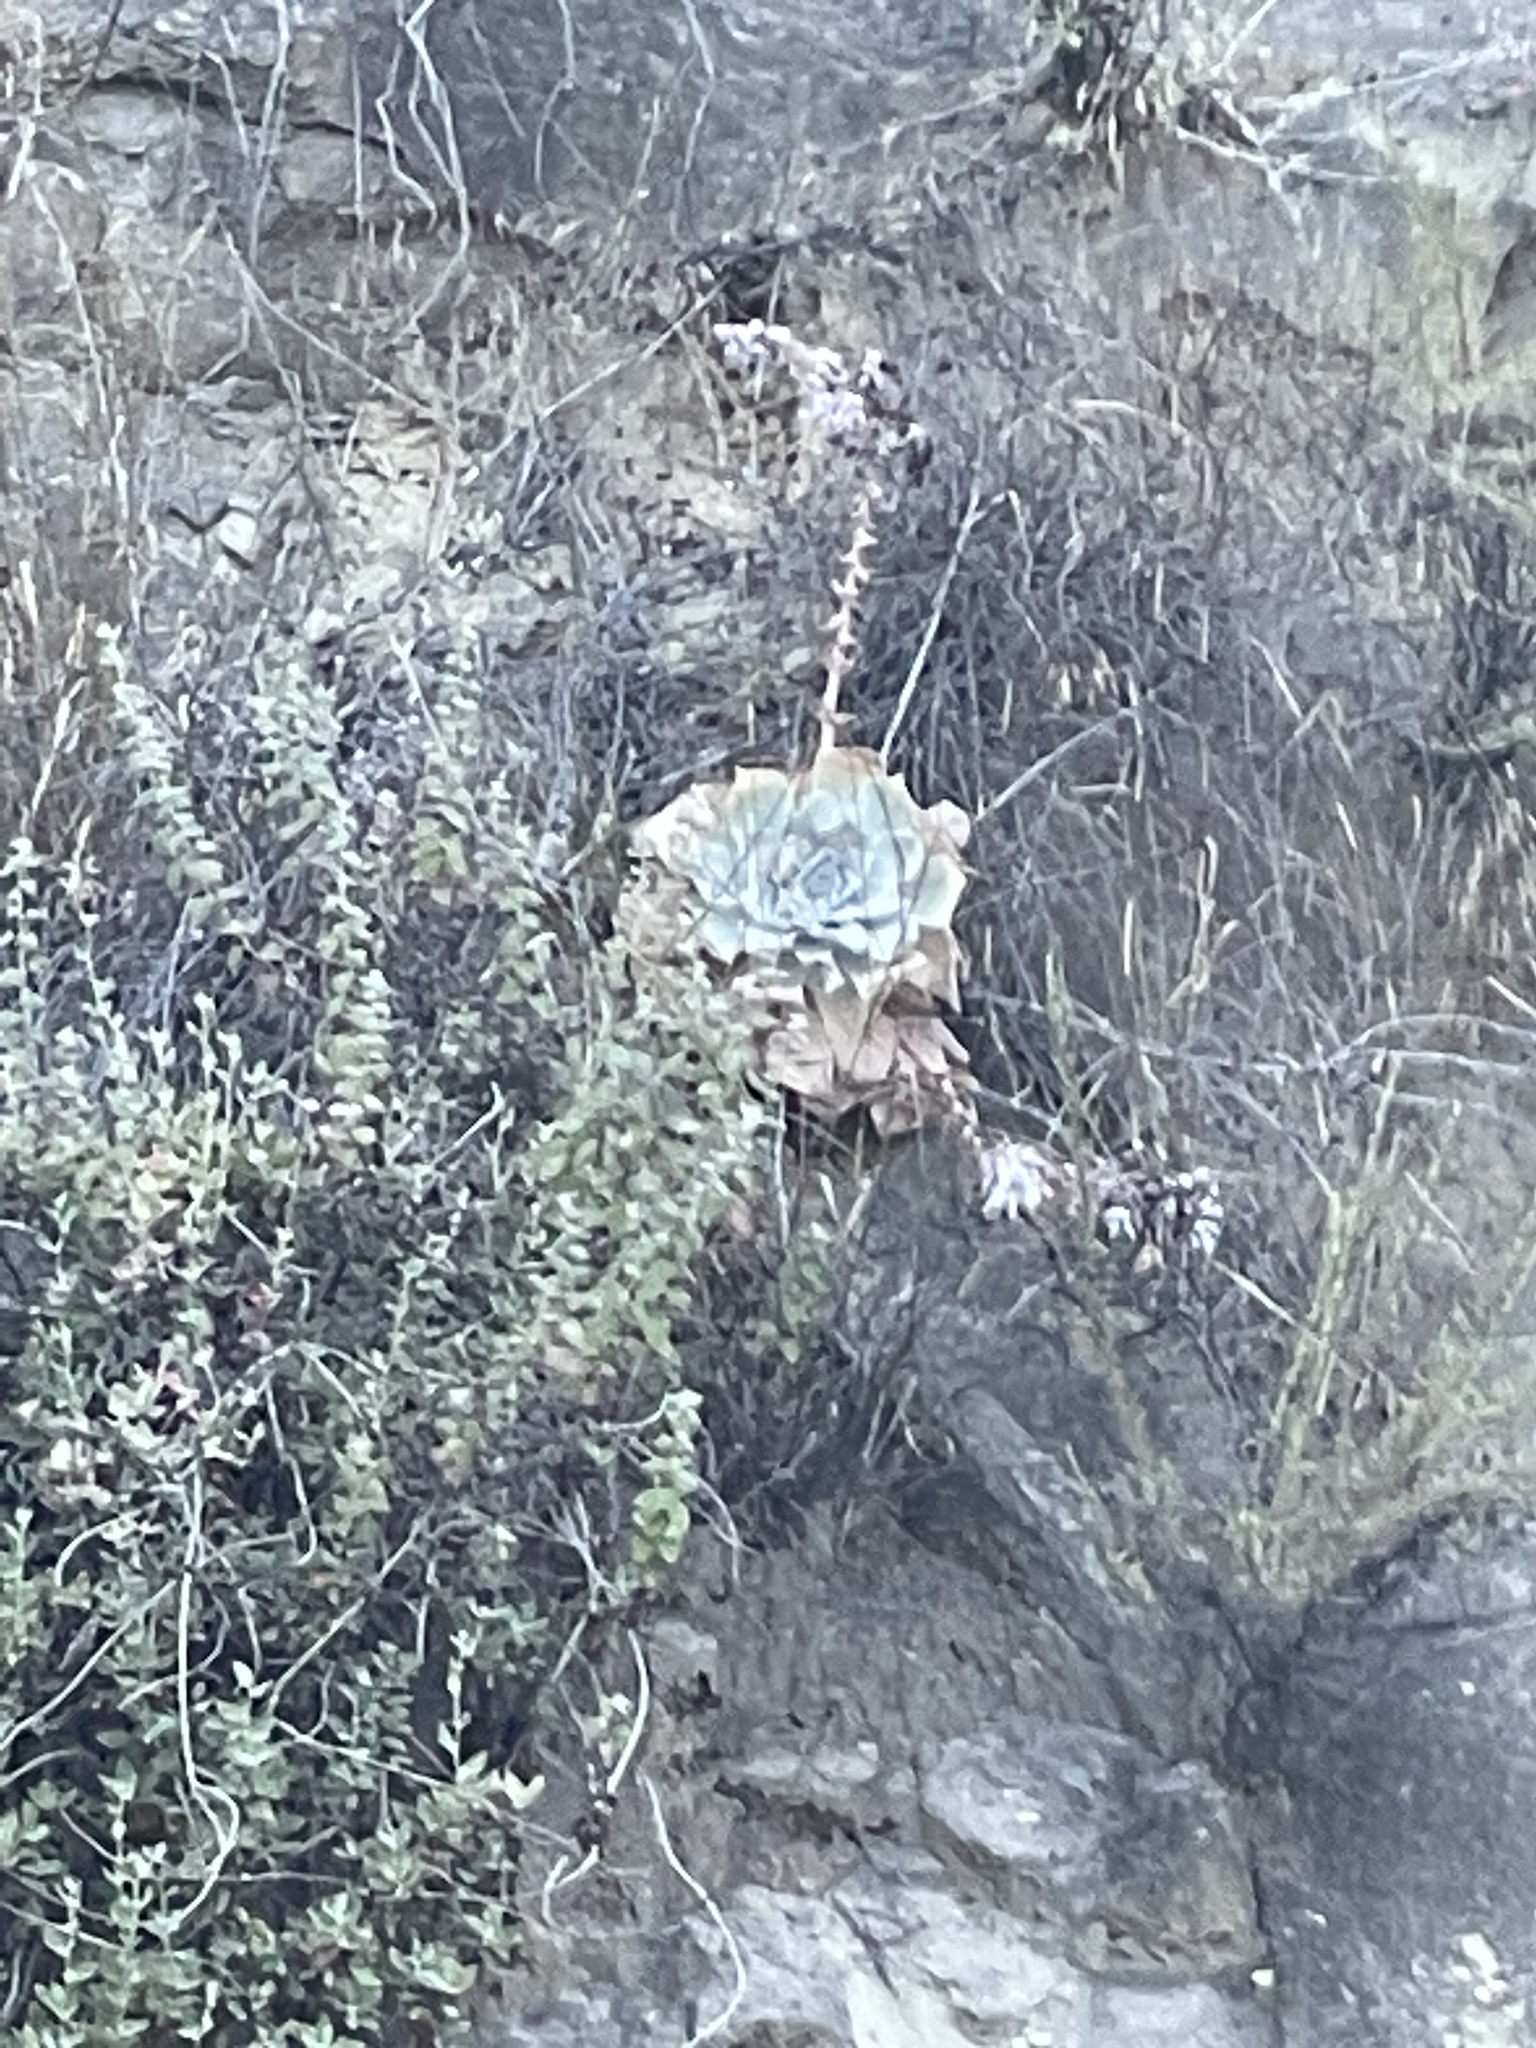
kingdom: Plantae
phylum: Tracheophyta
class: Magnoliopsida
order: Saxifragales
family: Crassulaceae
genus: Dudleya
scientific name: Dudleya pulverulenta
